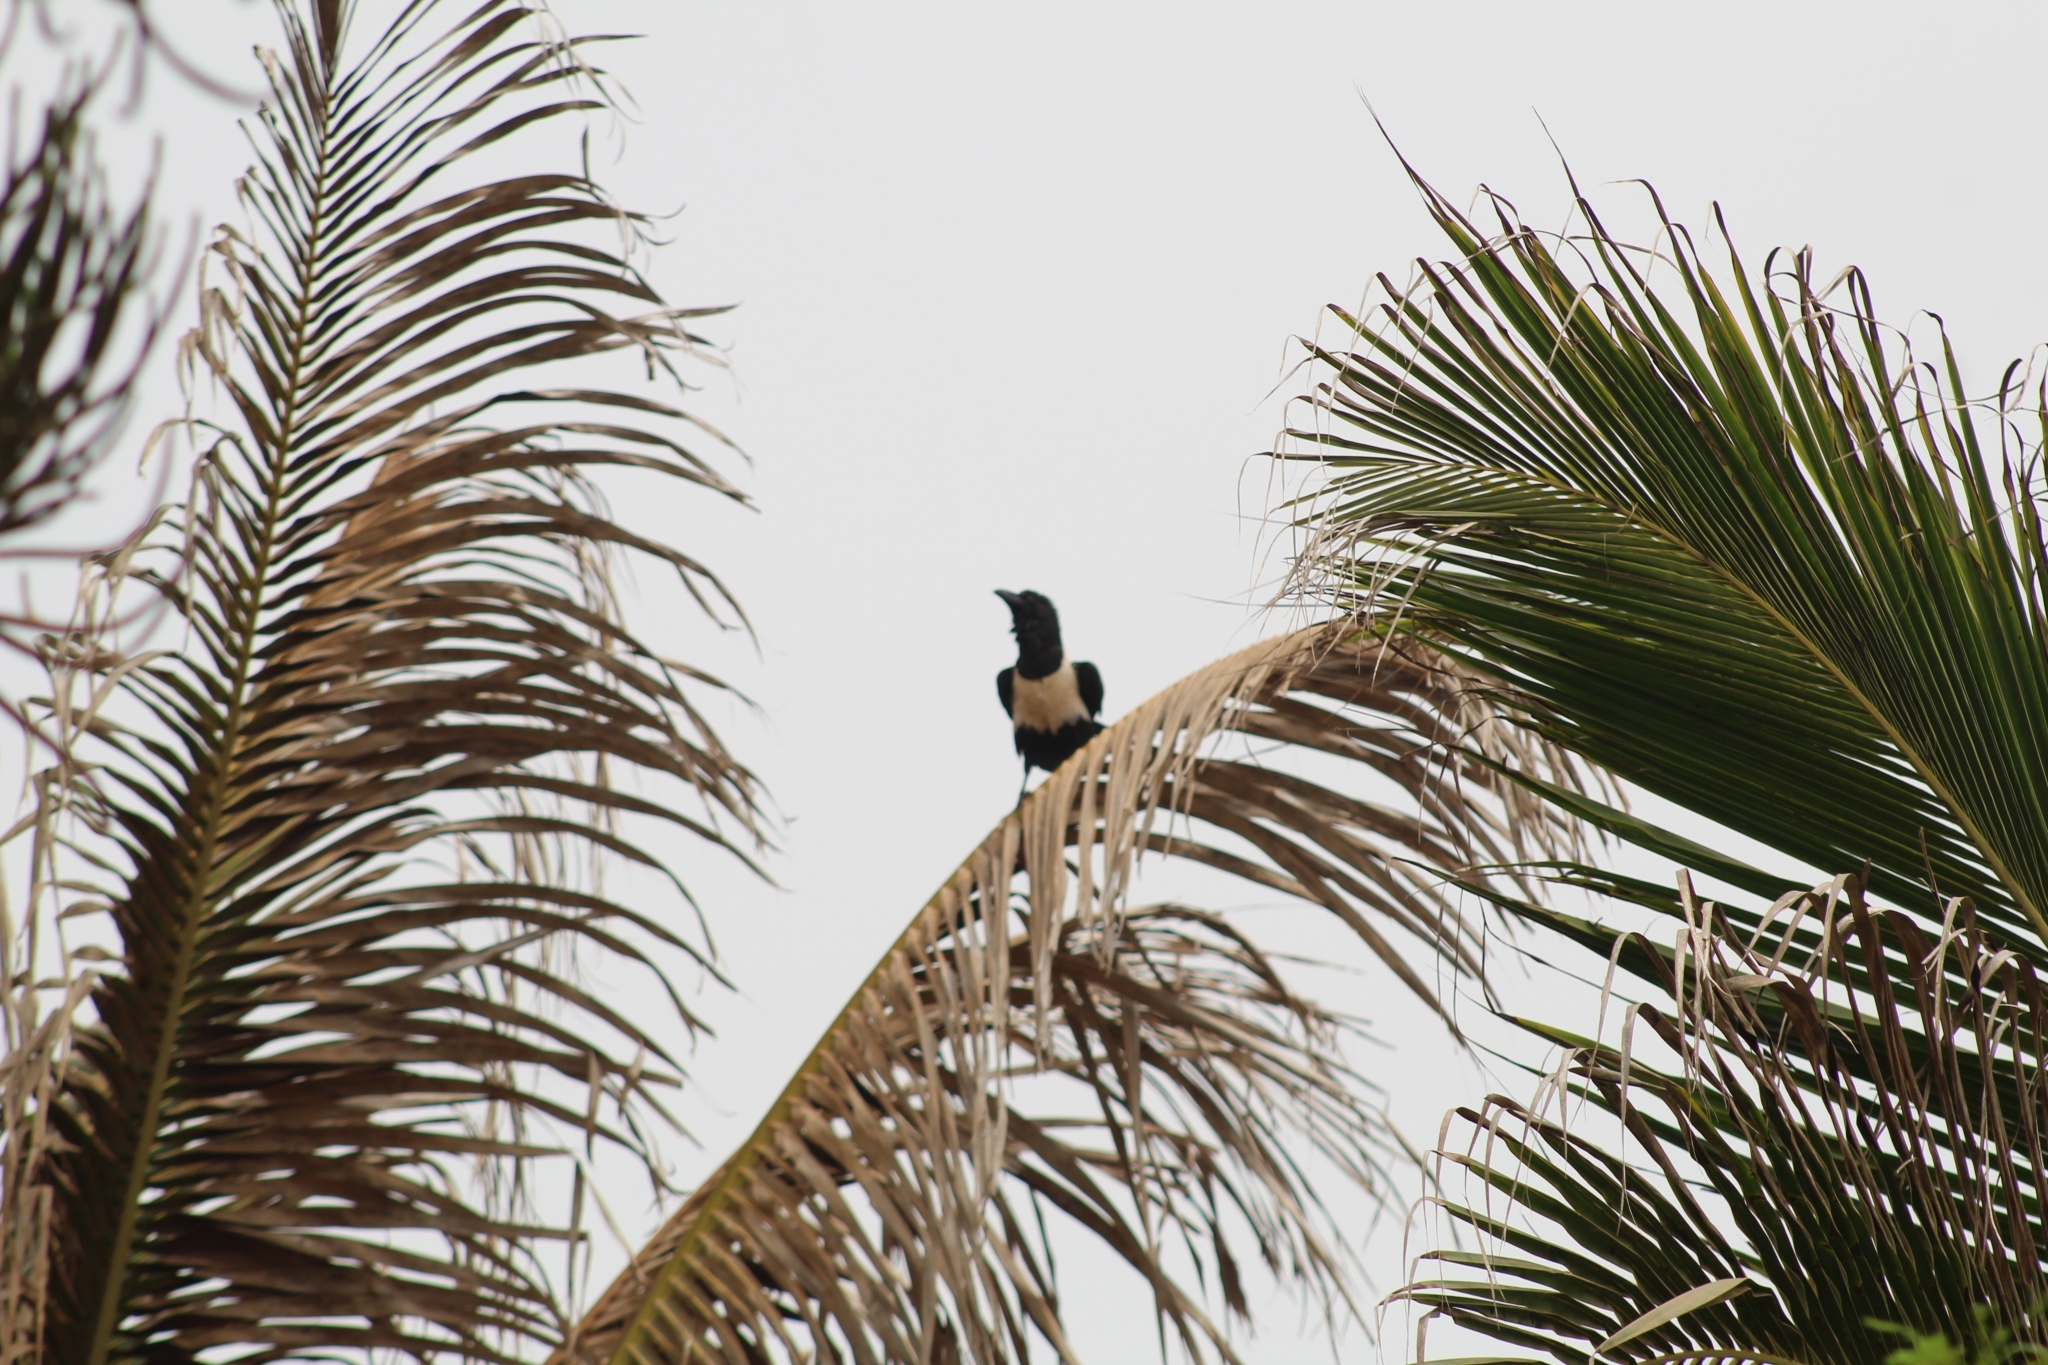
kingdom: Animalia
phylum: Chordata
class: Aves
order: Passeriformes
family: Corvidae
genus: Corvus
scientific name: Corvus albus
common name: Pied crow
